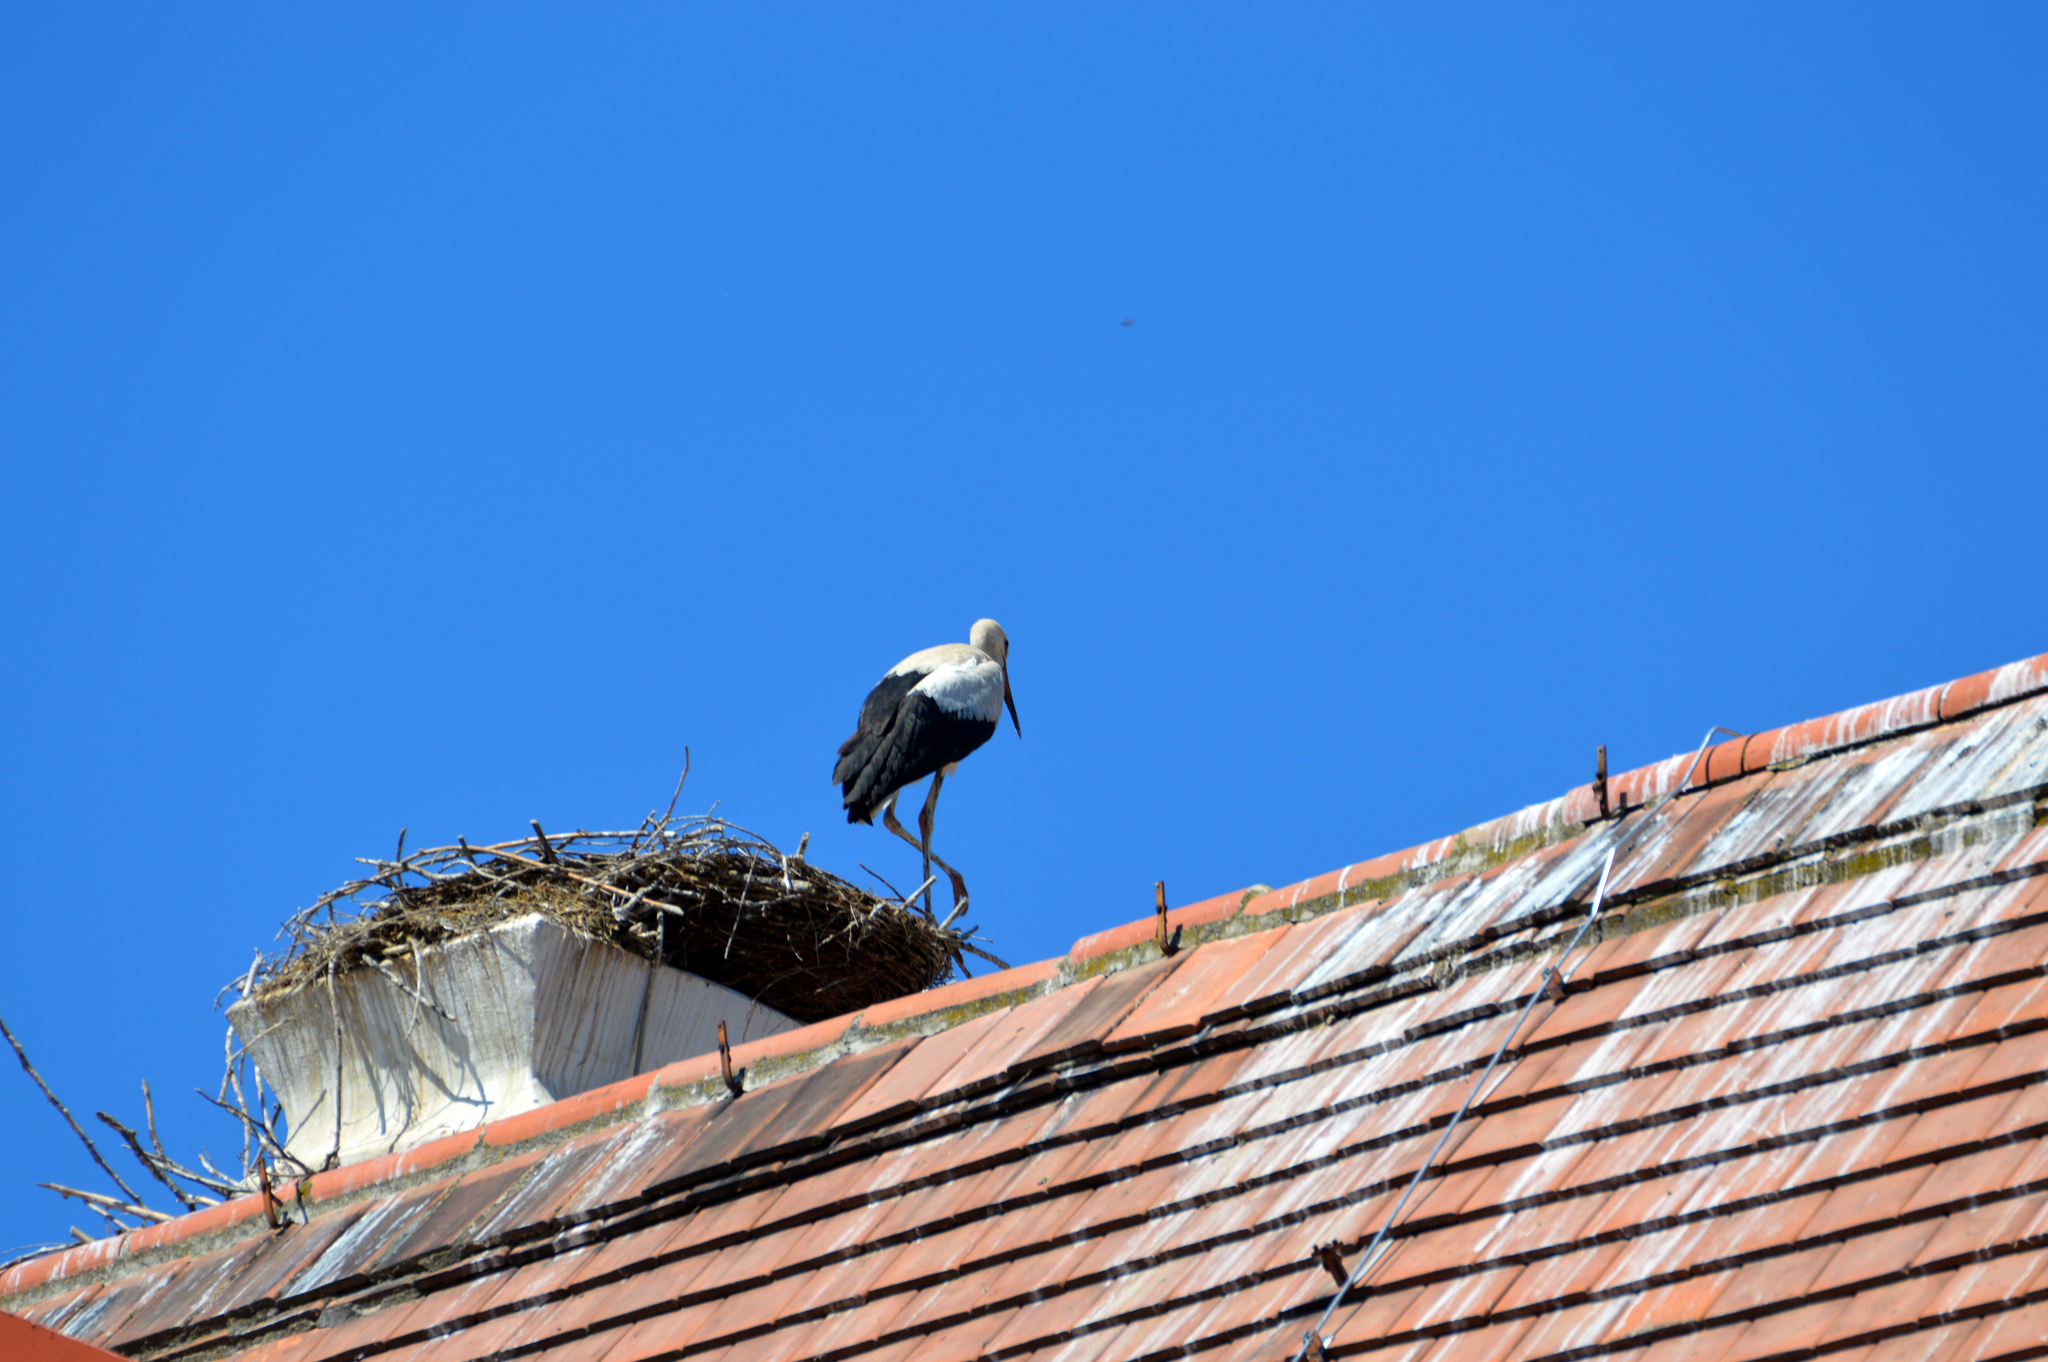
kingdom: Animalia
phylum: Chordata
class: Aves
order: Ciconiiformes
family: Ciconiidae
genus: Ciconia
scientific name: Ciconia ciconia
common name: White stork
